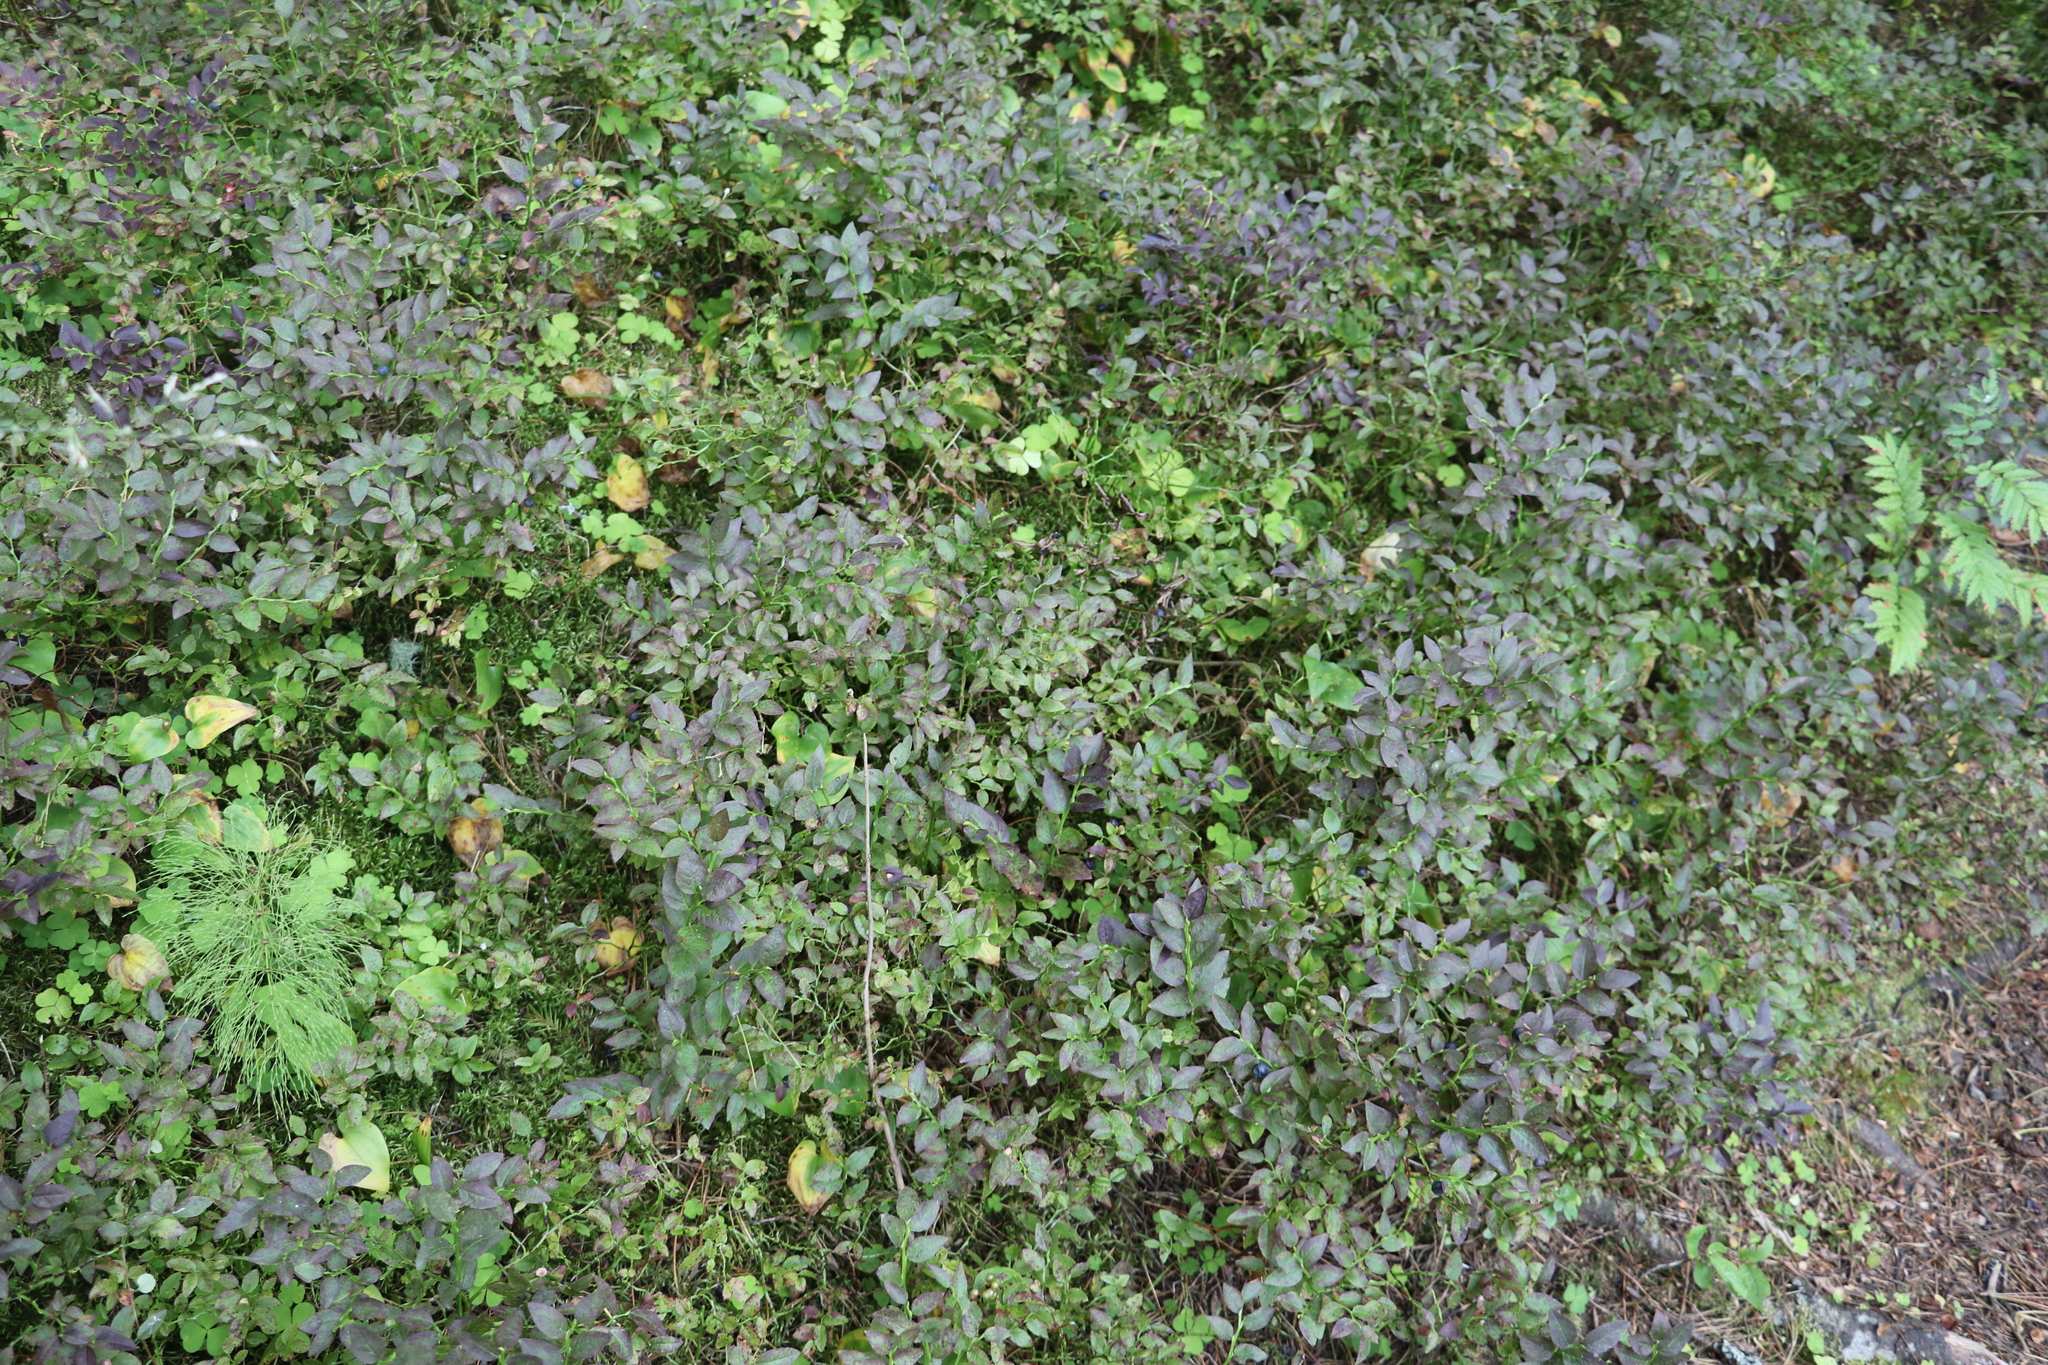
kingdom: Plantae
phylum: Tracheophyta
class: Magnoliopsida
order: Ericales
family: Ericaceae
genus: Vaccinium
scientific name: Vaccinium myrtillus
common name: Bilberry
